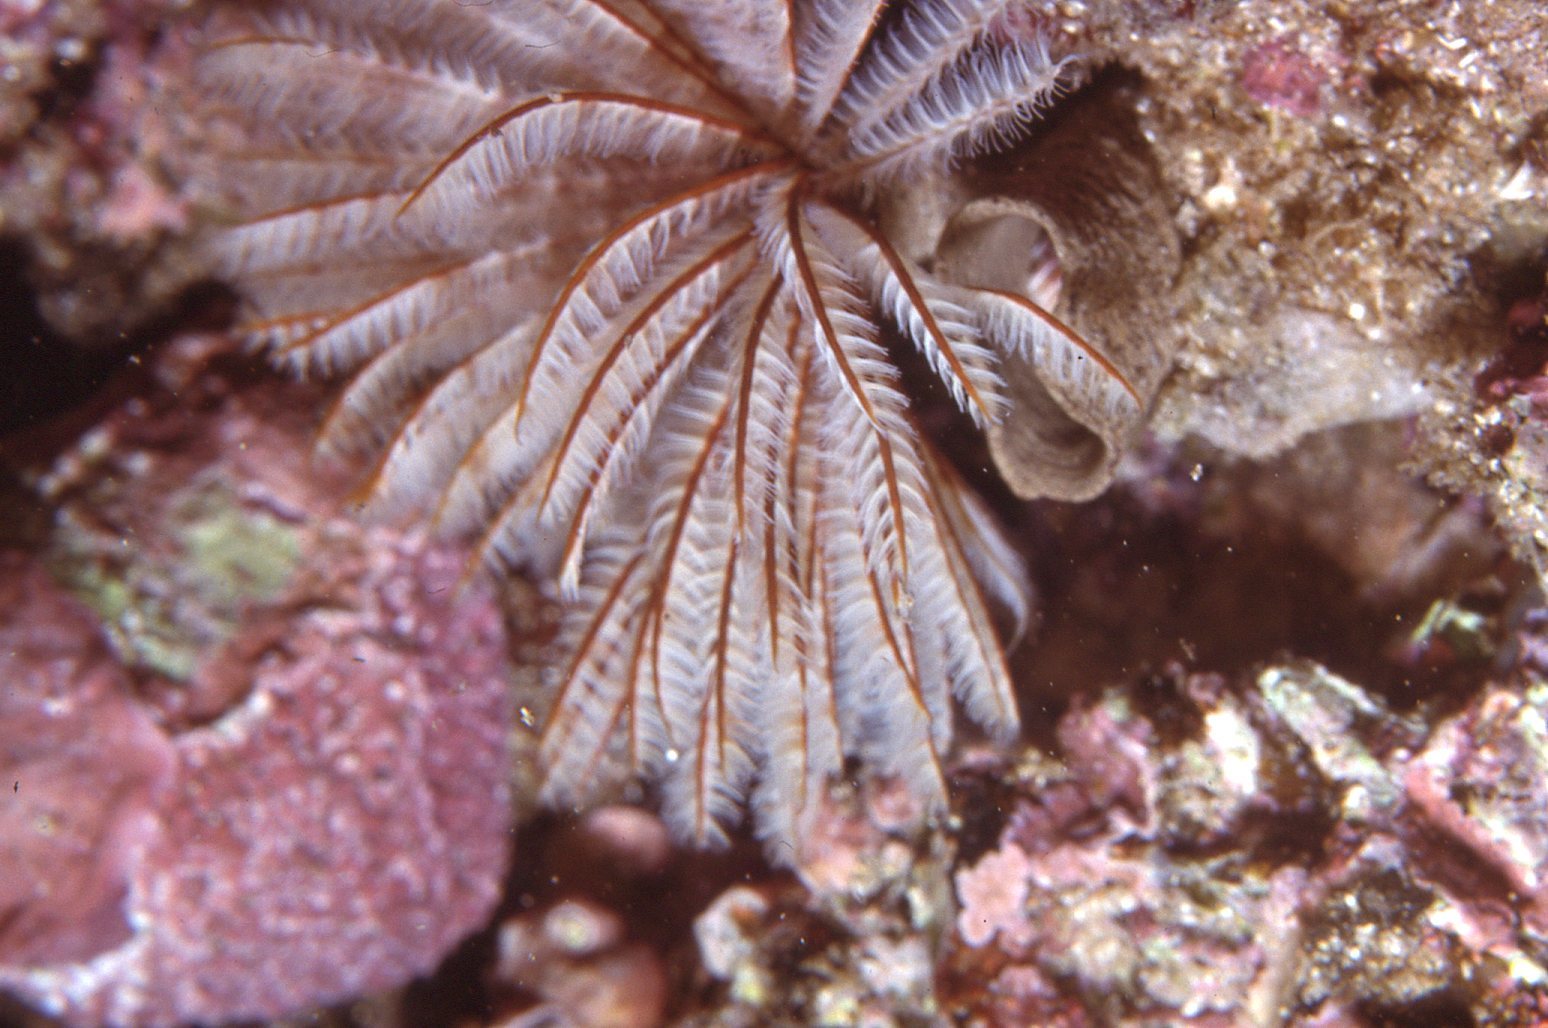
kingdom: Animalia
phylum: Annelida
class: Polychaeta
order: Sabellida
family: Sabellidae
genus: Sabellastarte
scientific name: Sabellastarte australiensis
